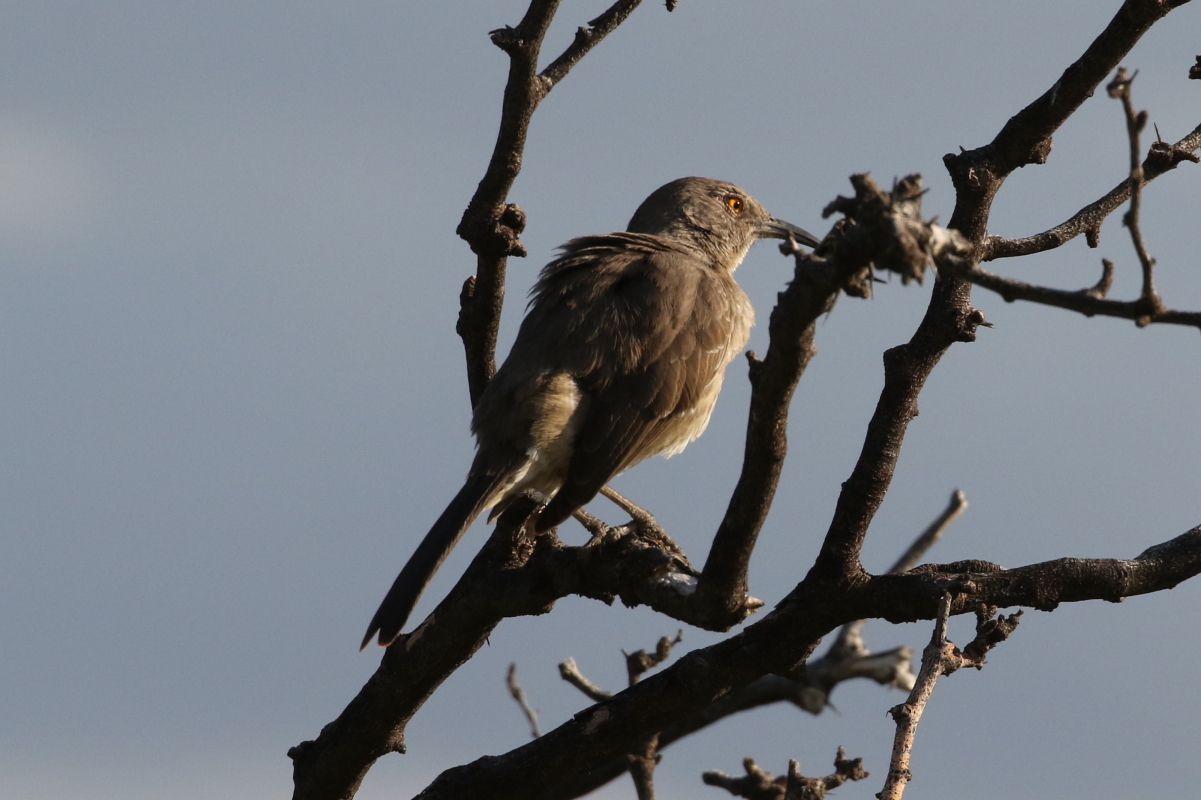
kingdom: Animalia
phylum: Chordata
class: Aves
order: Passeriformes
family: Mimidae
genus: Toxostoma
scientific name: Toxostoma curvirostre
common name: Curve-billed thrasher
